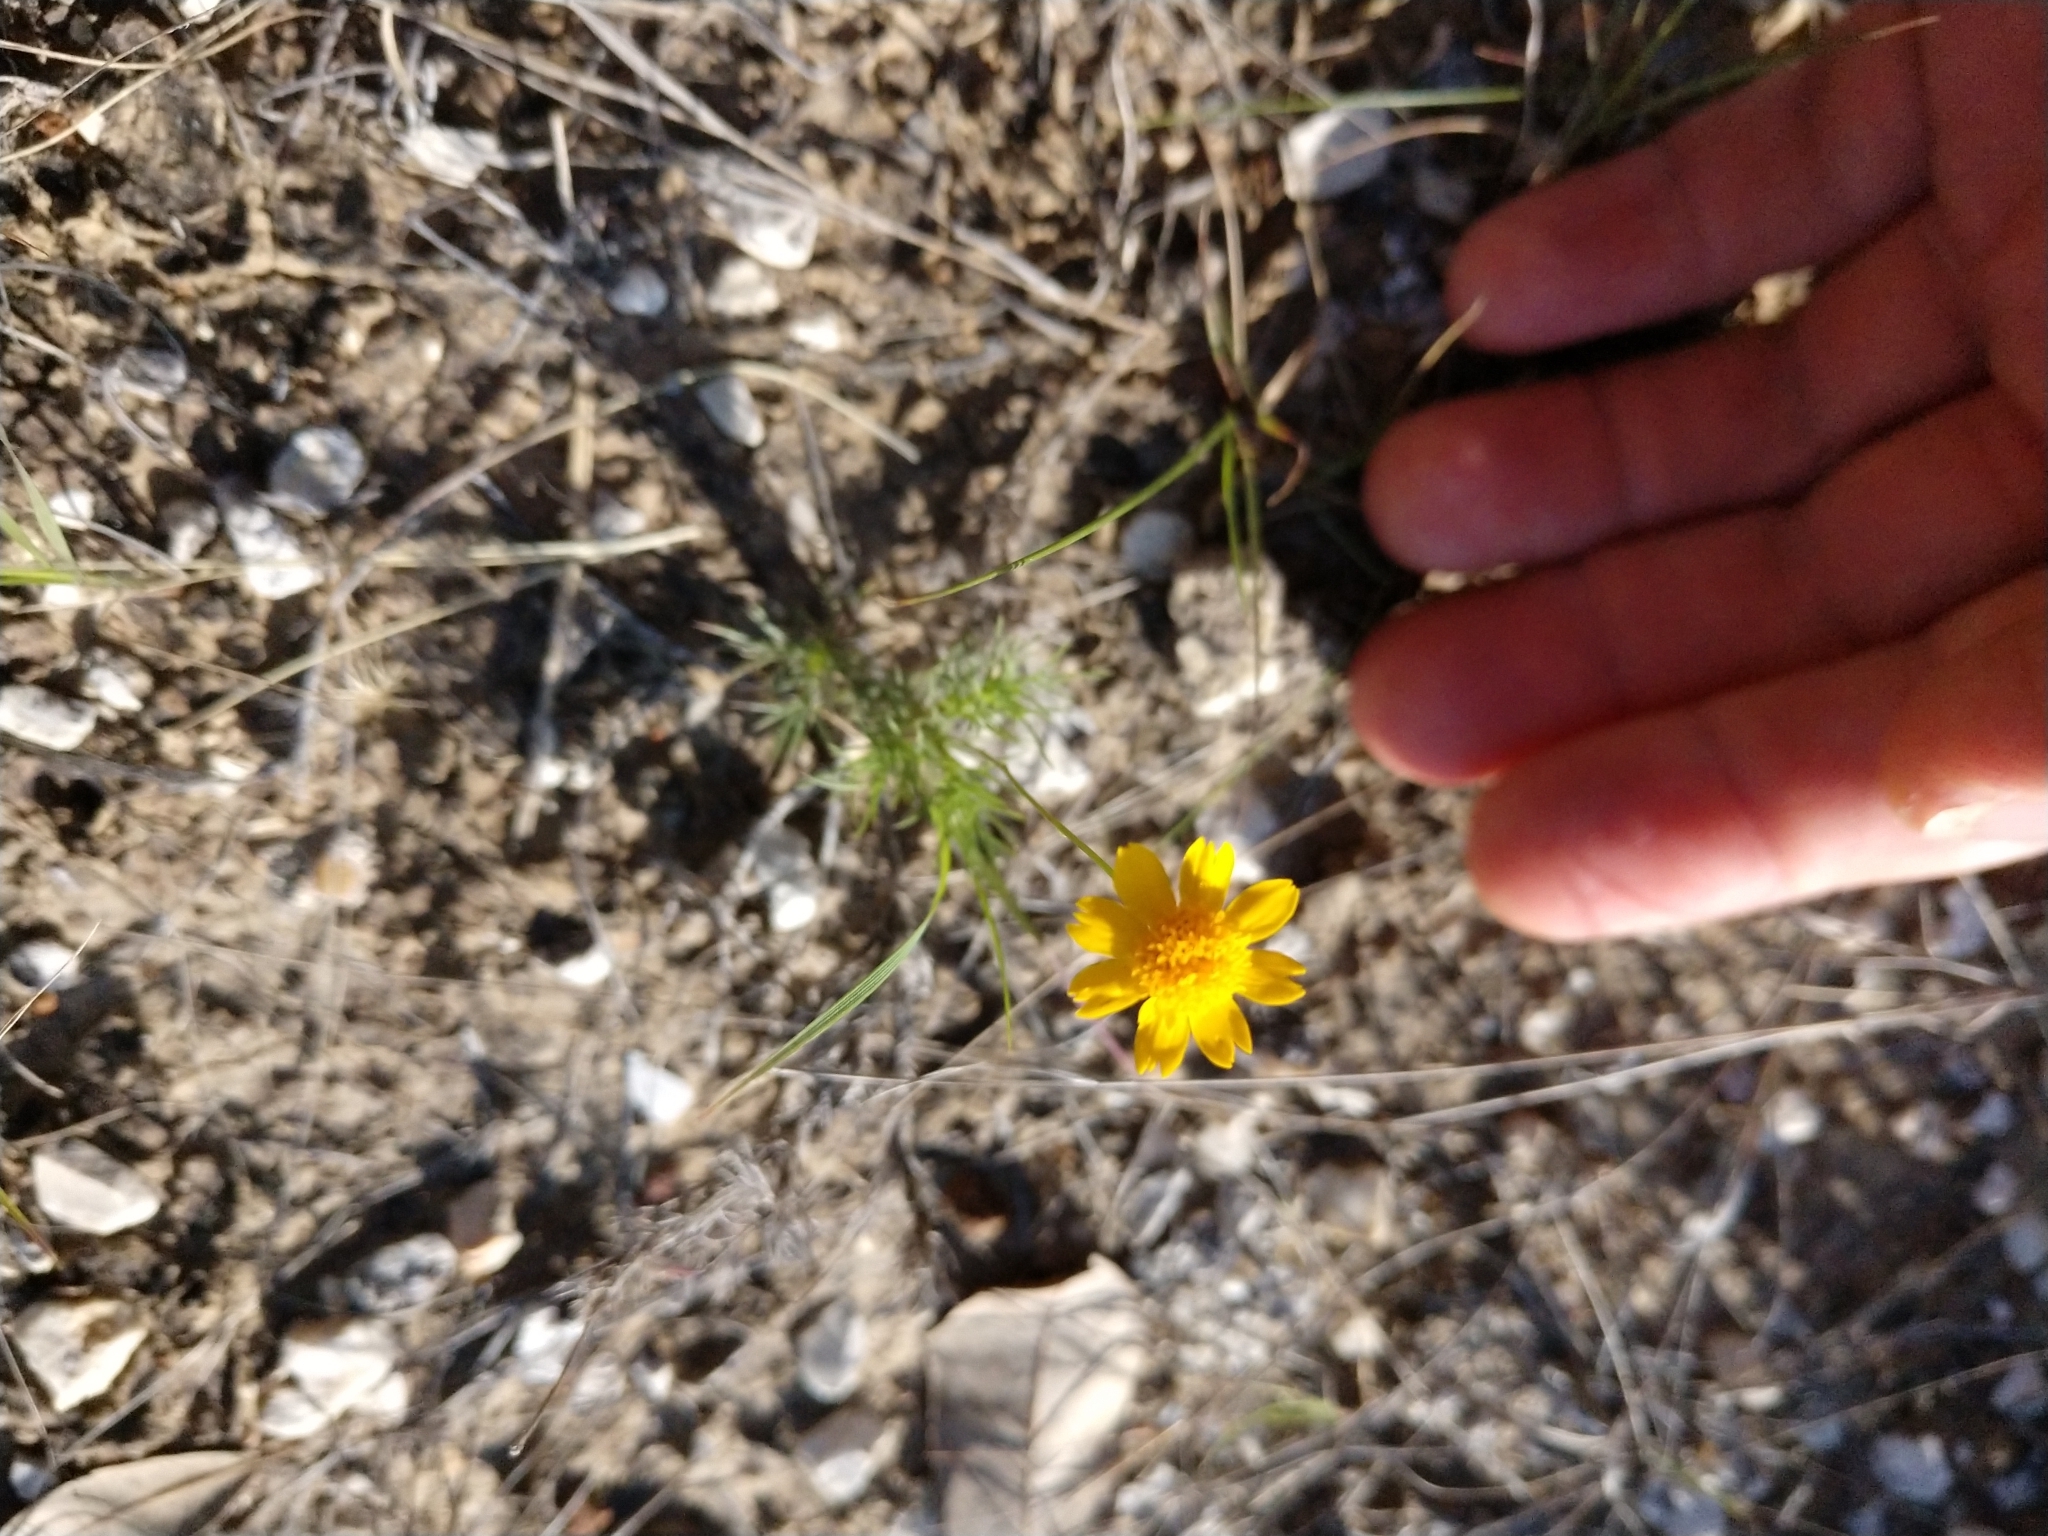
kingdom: Plantae
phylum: Tracheophyta
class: Magnoliopsida
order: Asterales
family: Asteraceae
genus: Thymophylla
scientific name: Thymophylla tenuiloba
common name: Dahlberg's daisy
